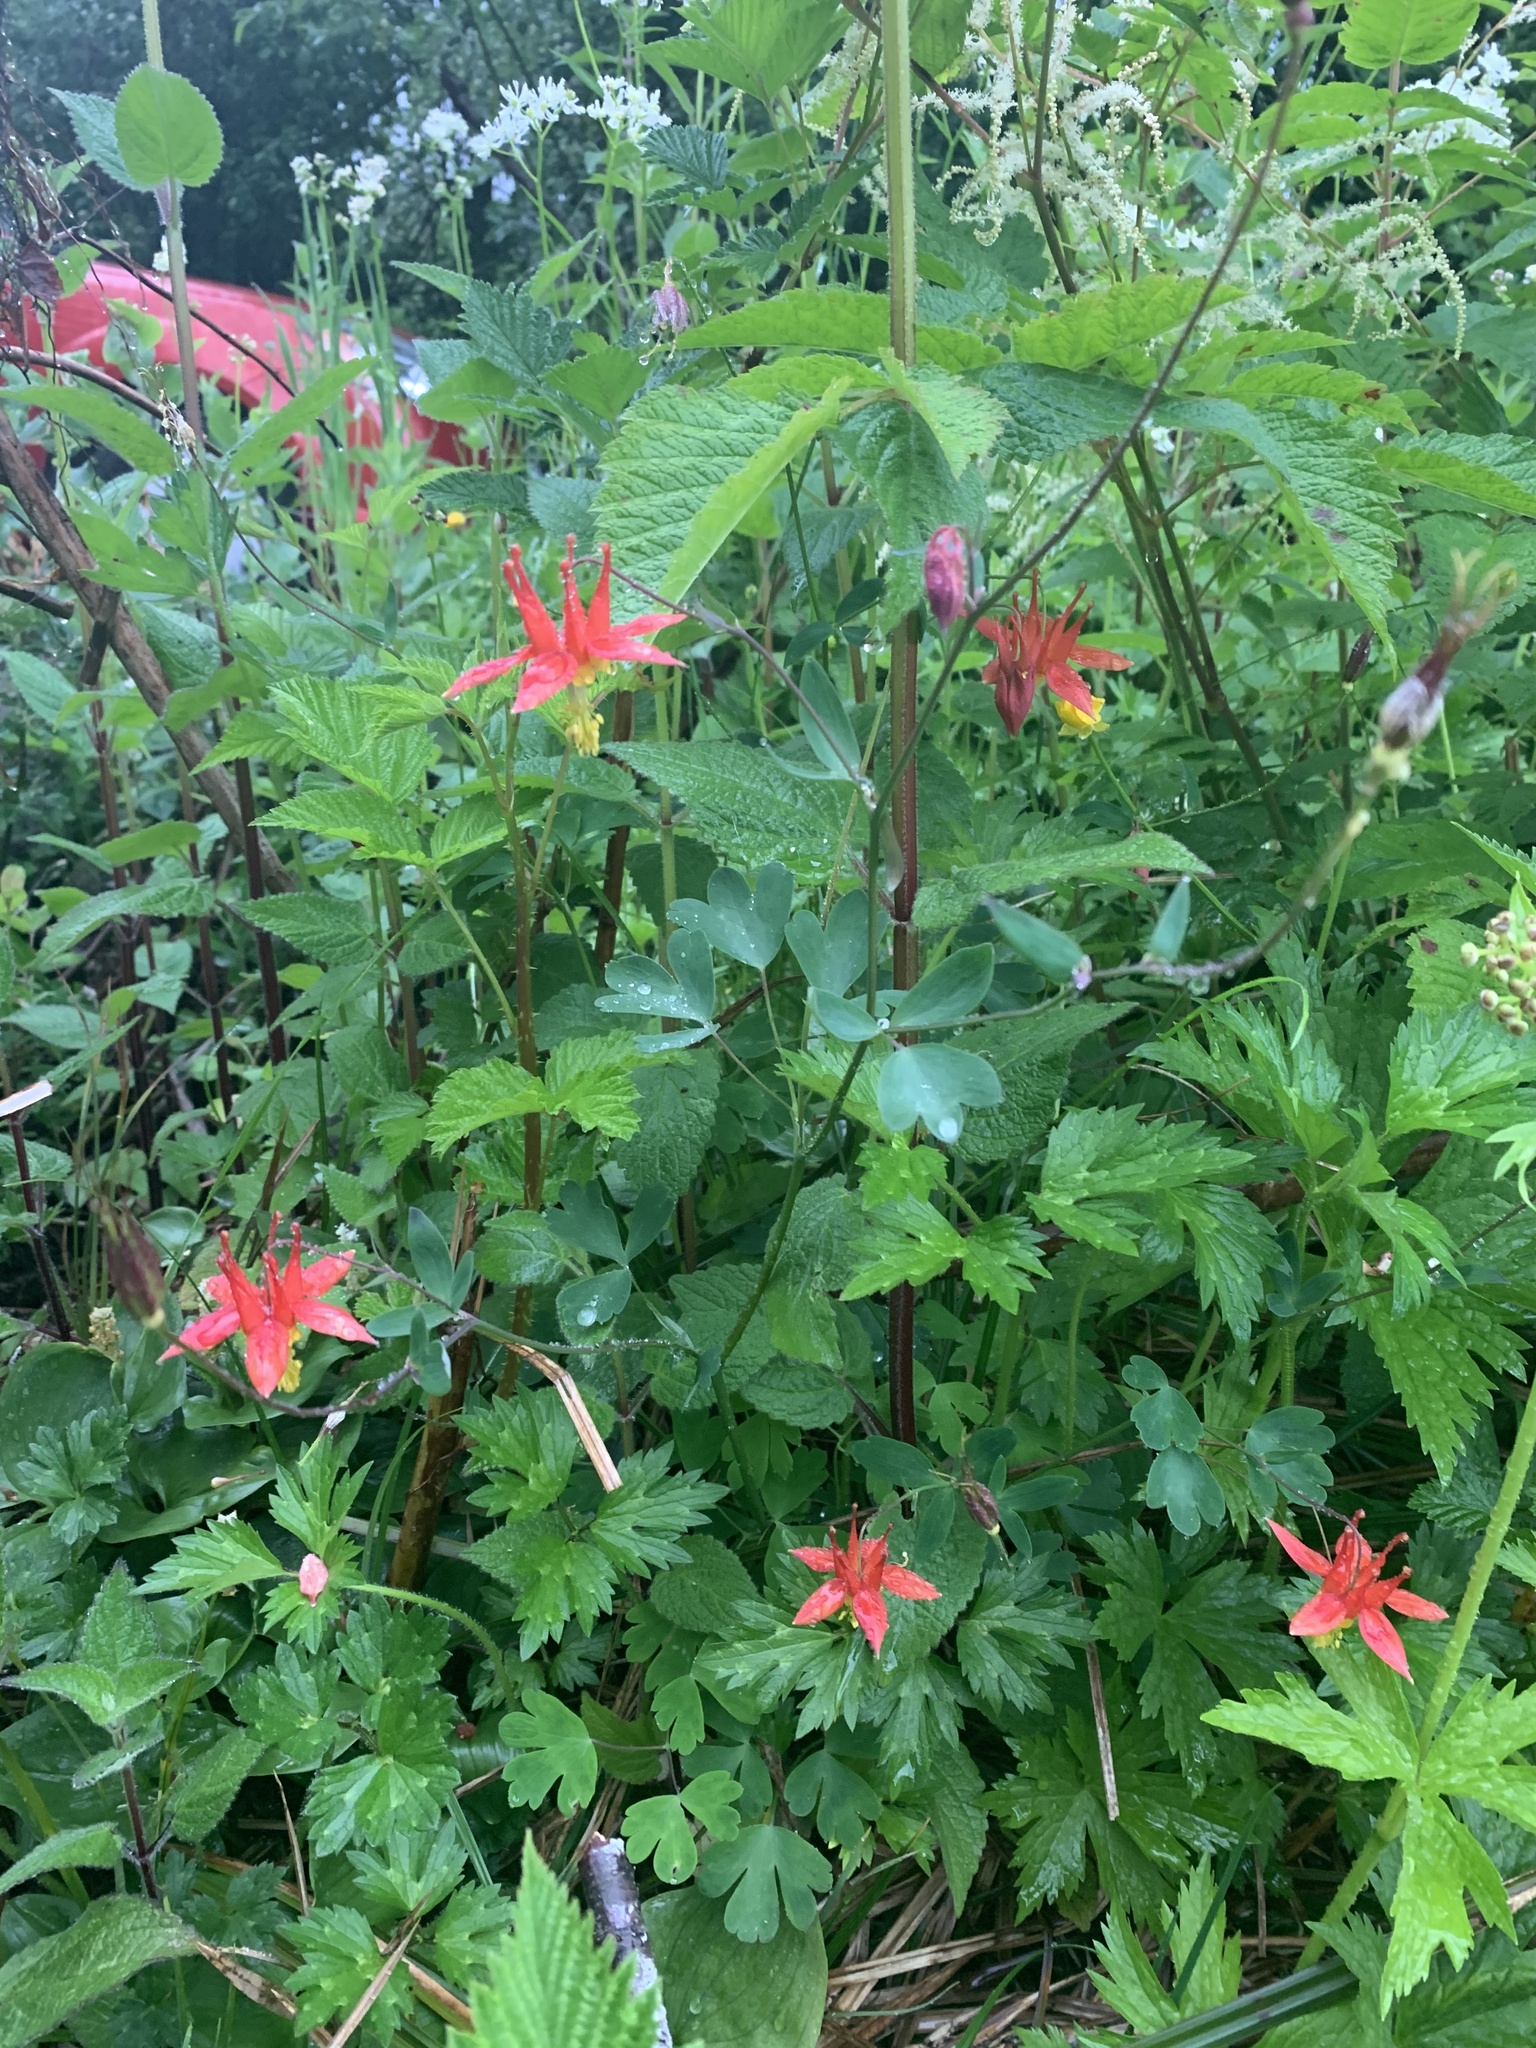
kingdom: Plantae
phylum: Tracheophyta
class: Magnoliopsida
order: Ranunculales
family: Ranunculaceae
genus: Aquilegia
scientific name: Aquilegia formosa
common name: Sitka columbine
